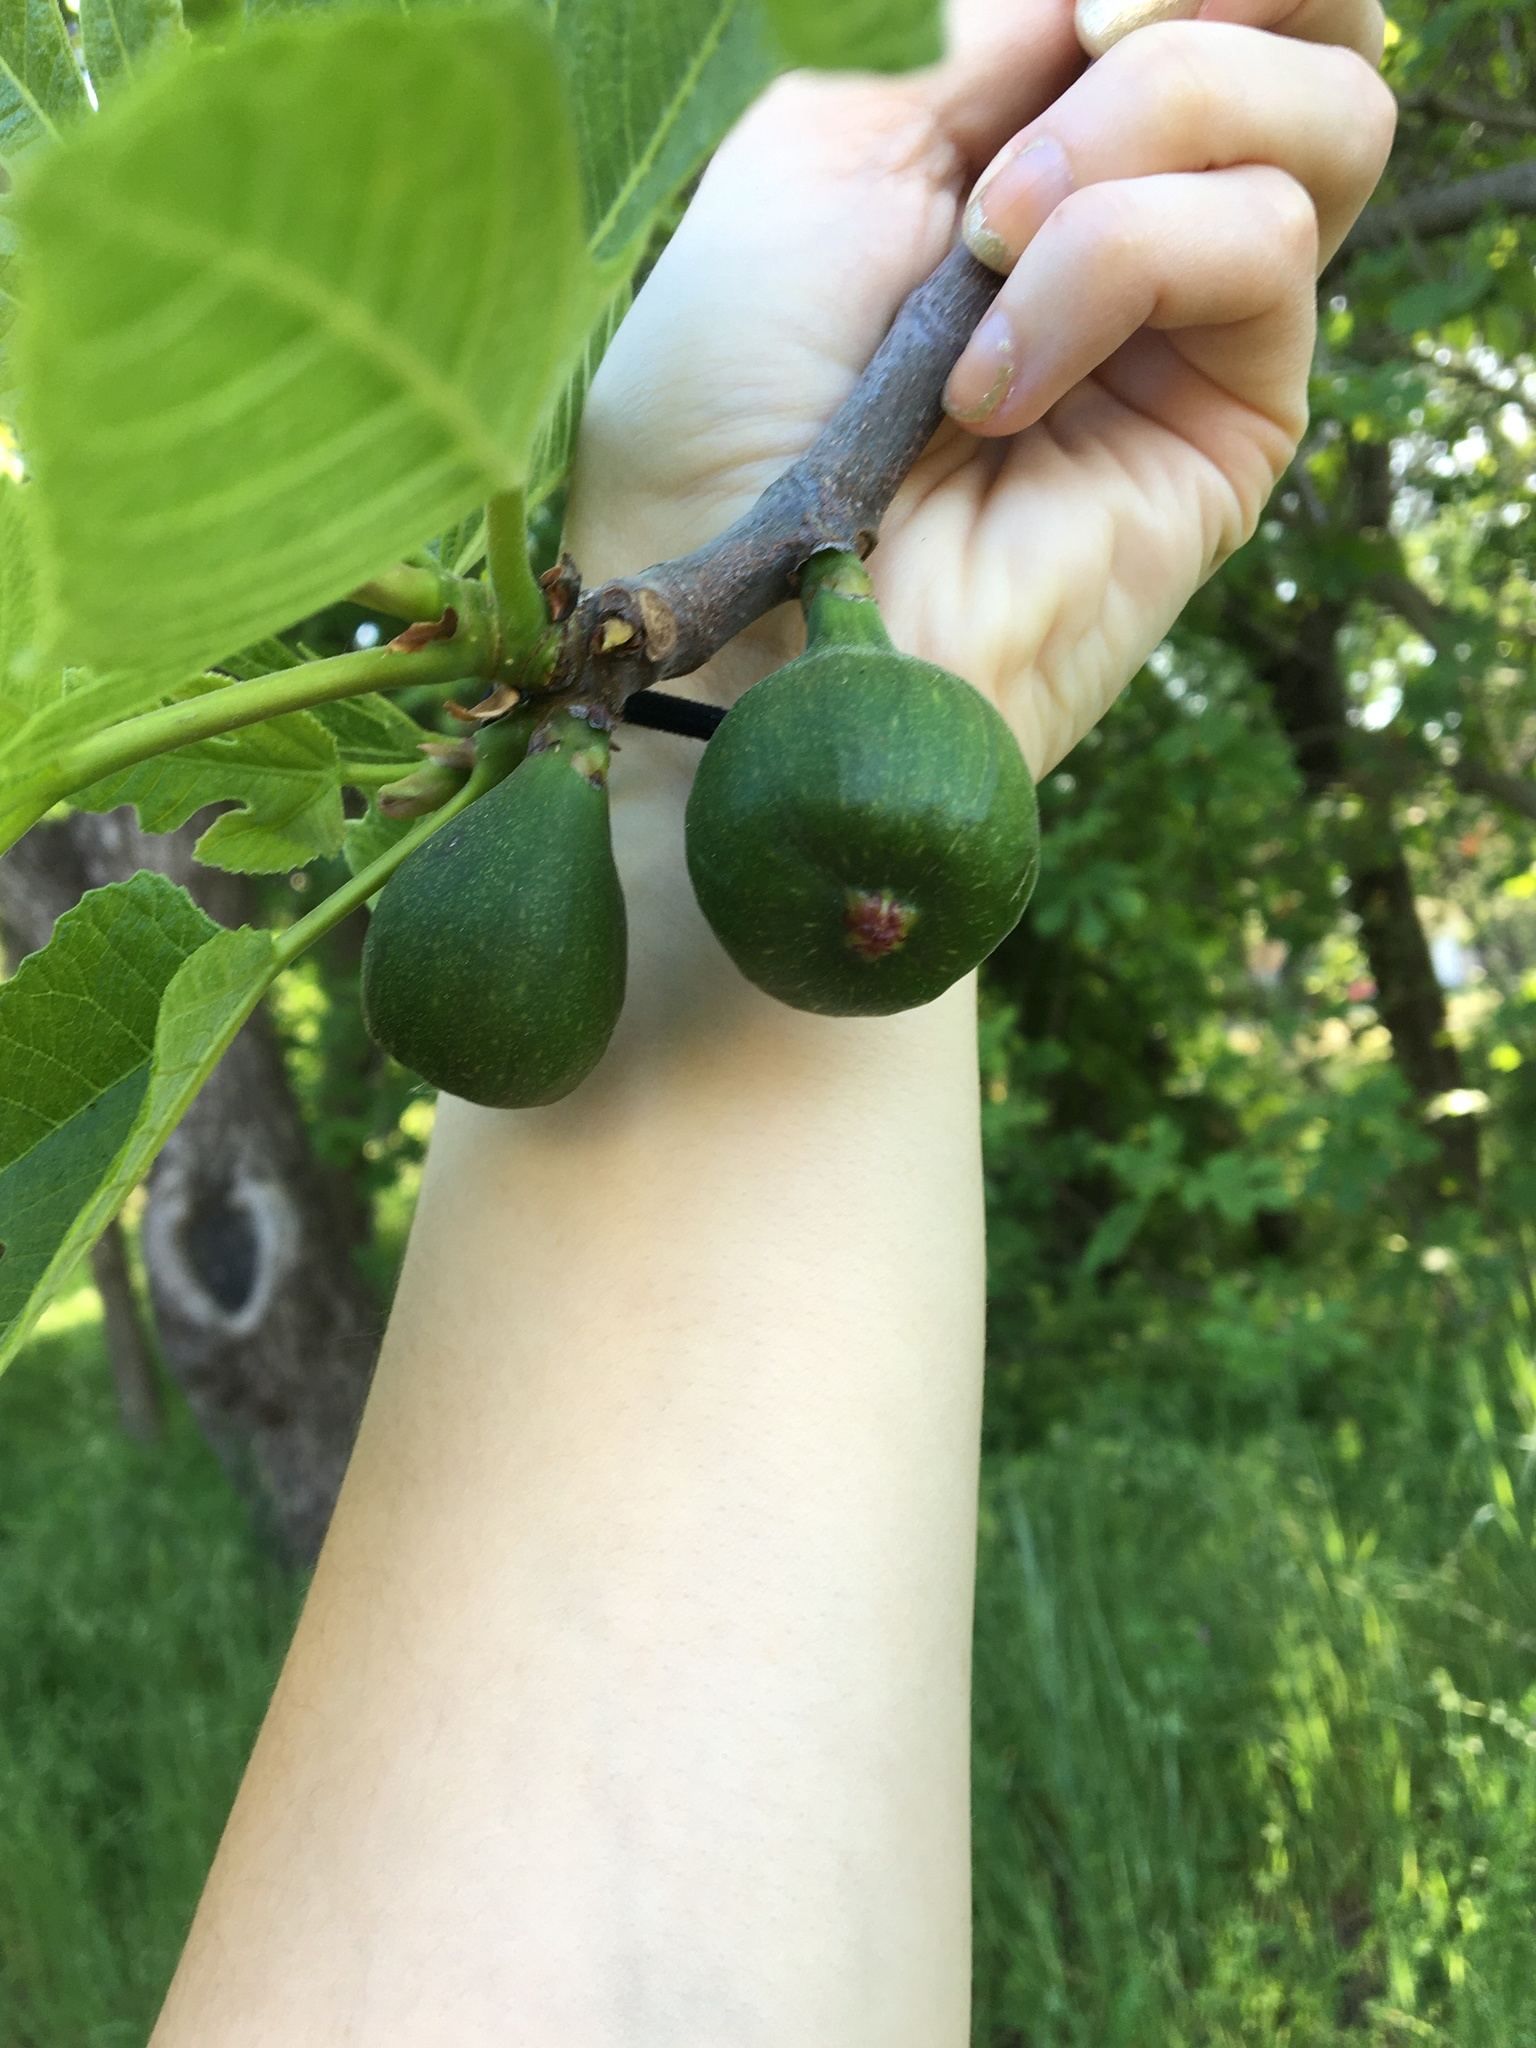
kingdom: Plantae
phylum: Tracheophyta
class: Magnoliopsida
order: Rosales
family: Moraceae
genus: Ficus
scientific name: Ficus carica
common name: Fig
